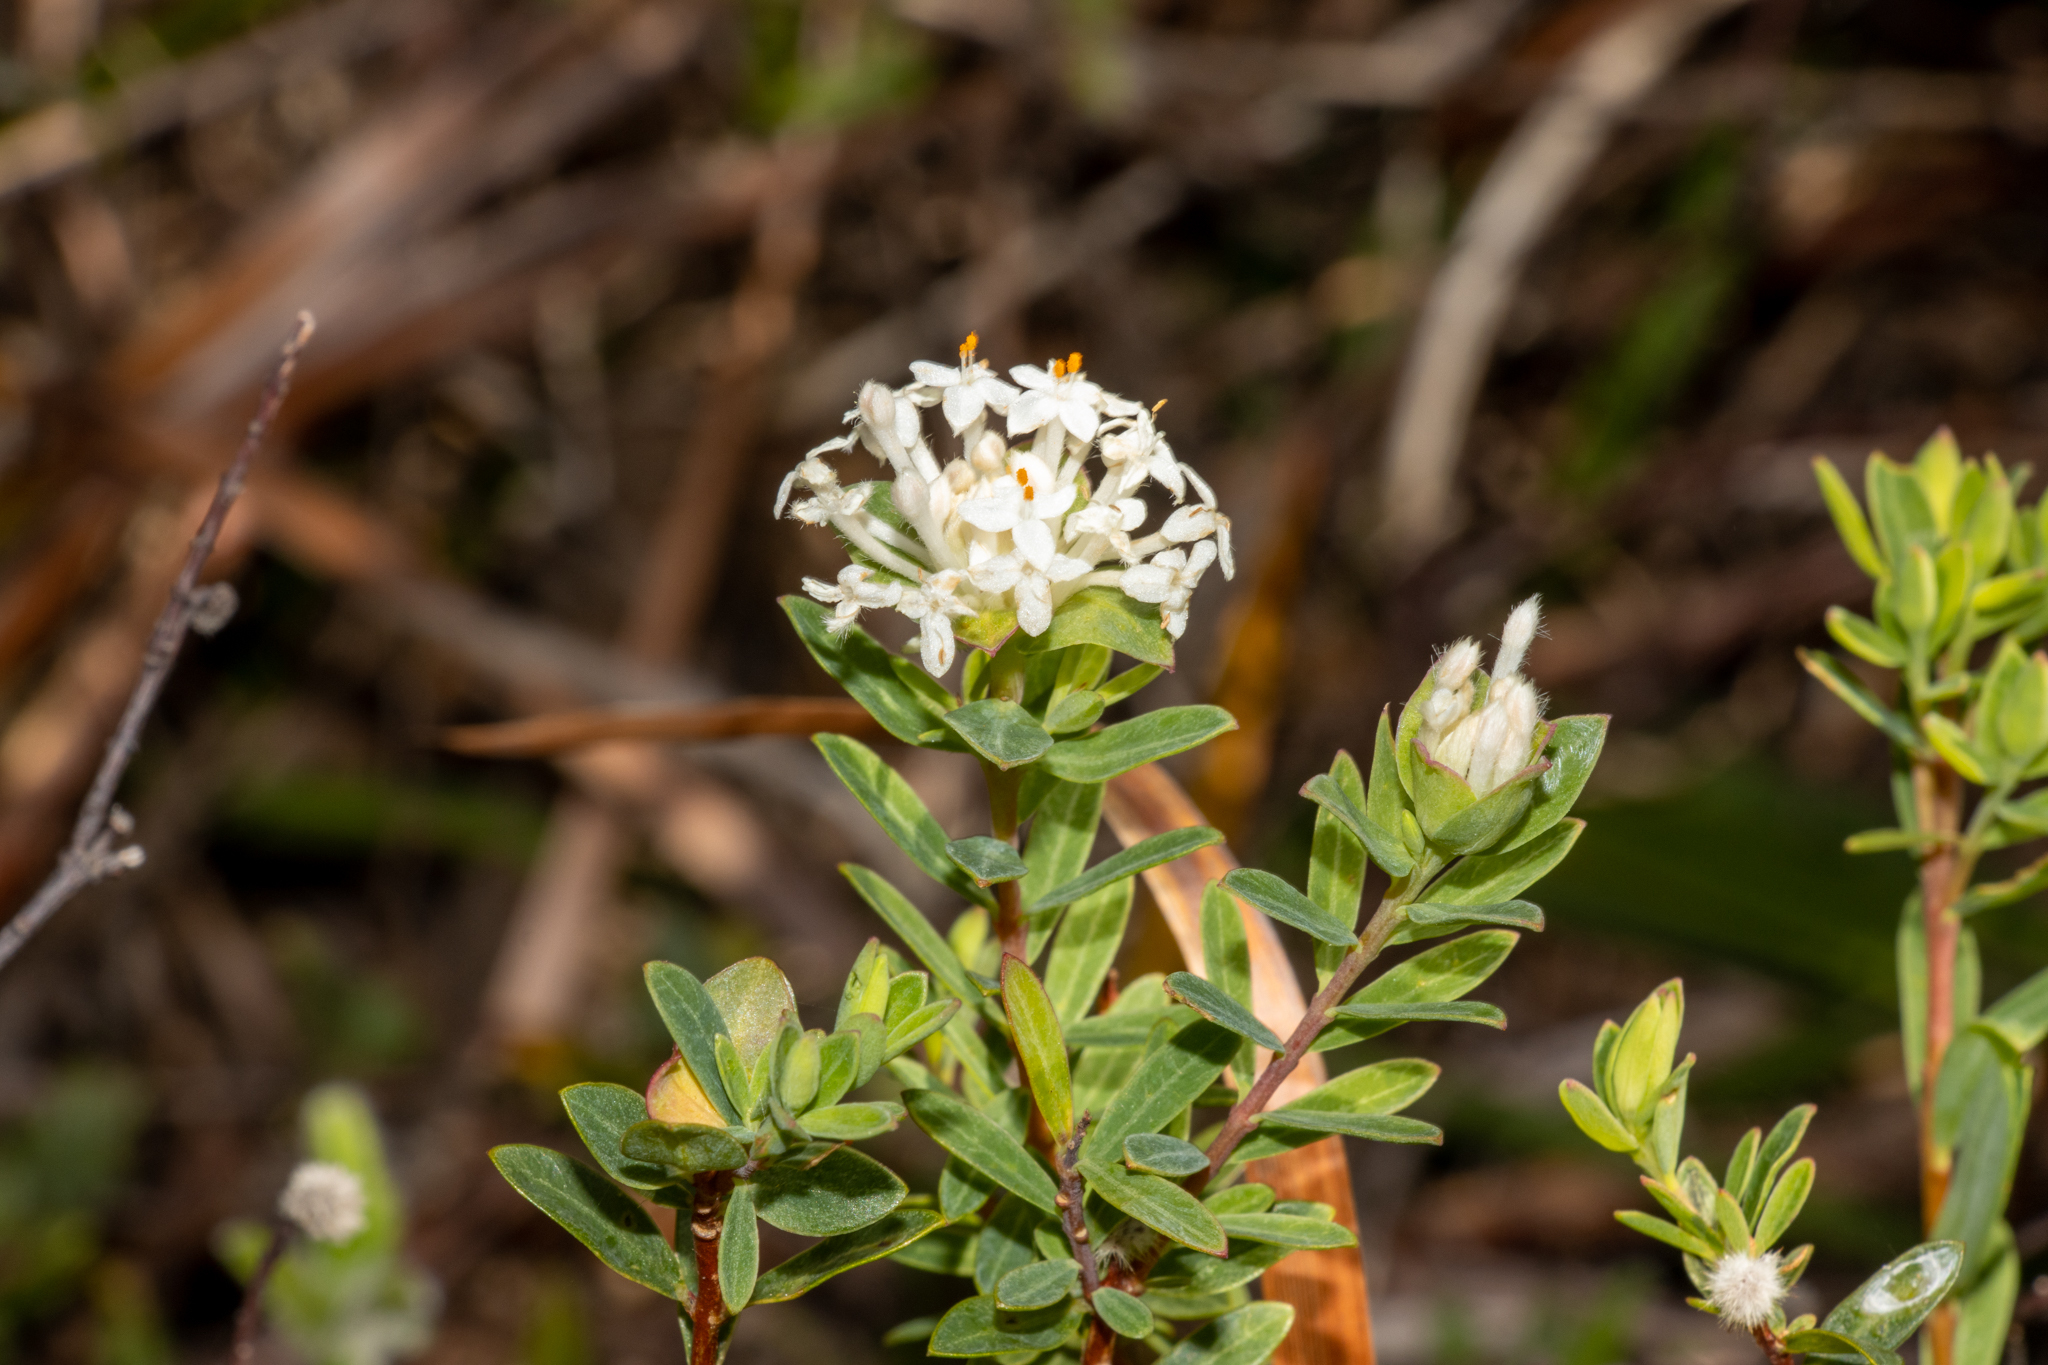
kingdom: Plantae
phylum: Tracheophyta
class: Magnoliopsida
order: Malvales
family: Thymelaeaceae
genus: Pimelea
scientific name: Pimelea linifolia
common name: Queen-of-the-bush
